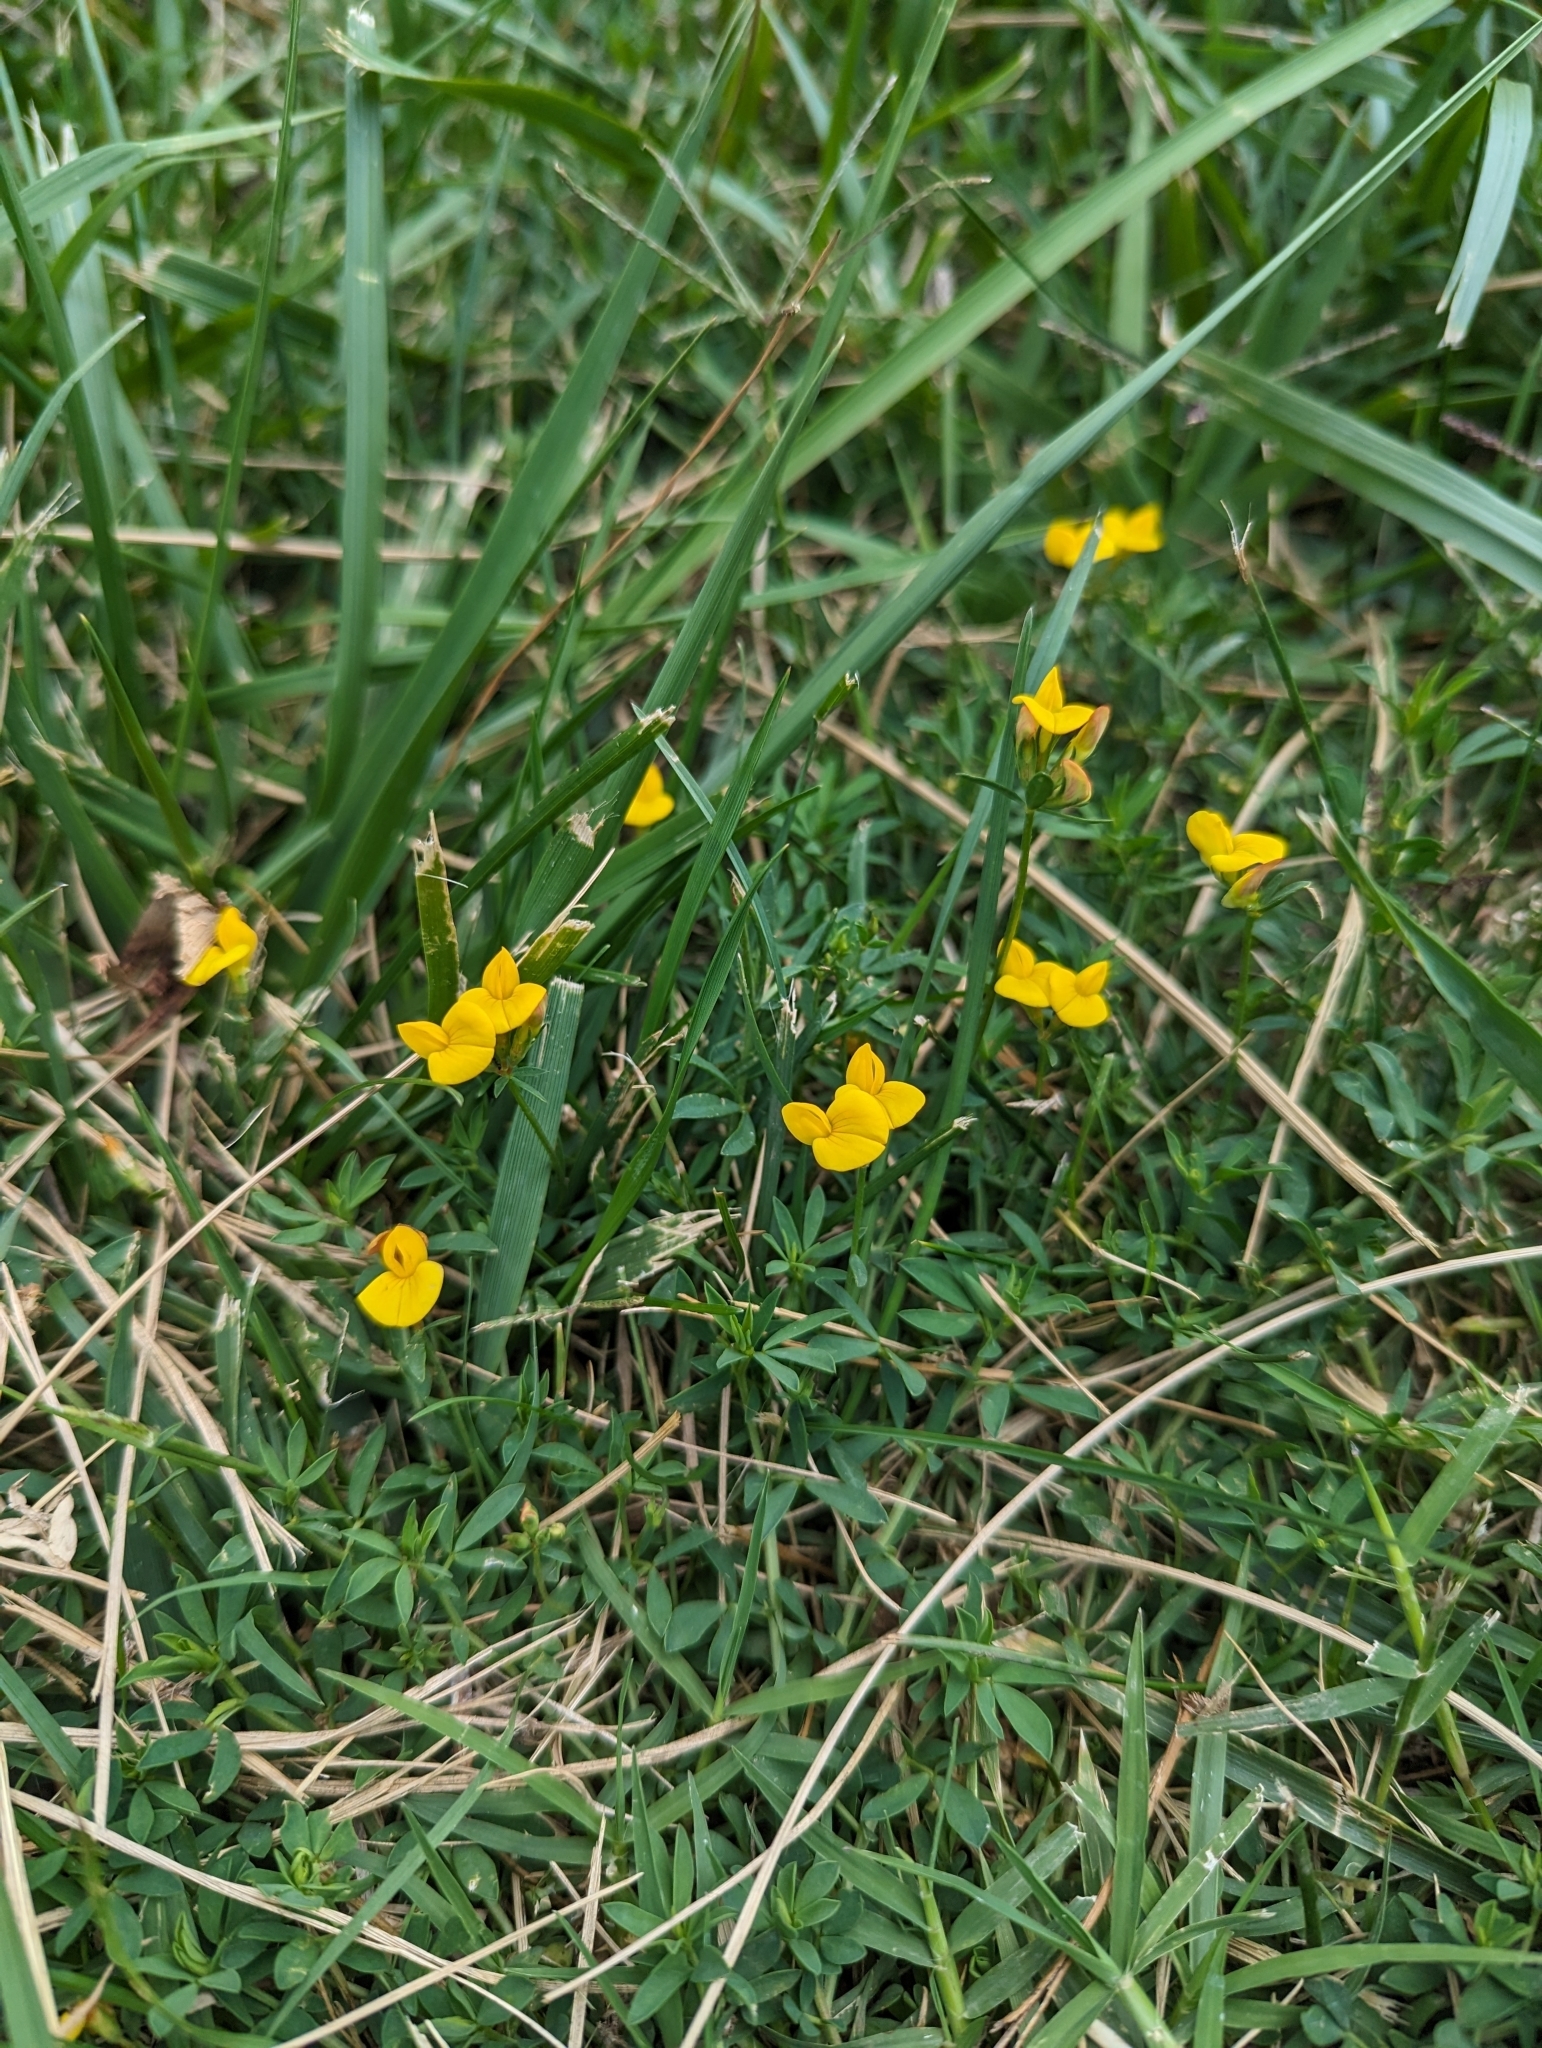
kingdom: Plantae
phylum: Tracheophyta
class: Magnoliopsida
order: Fabales
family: Fabaceae
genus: Lotus
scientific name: Lotus corniculatus
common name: Common bird's-foot-trefoil
